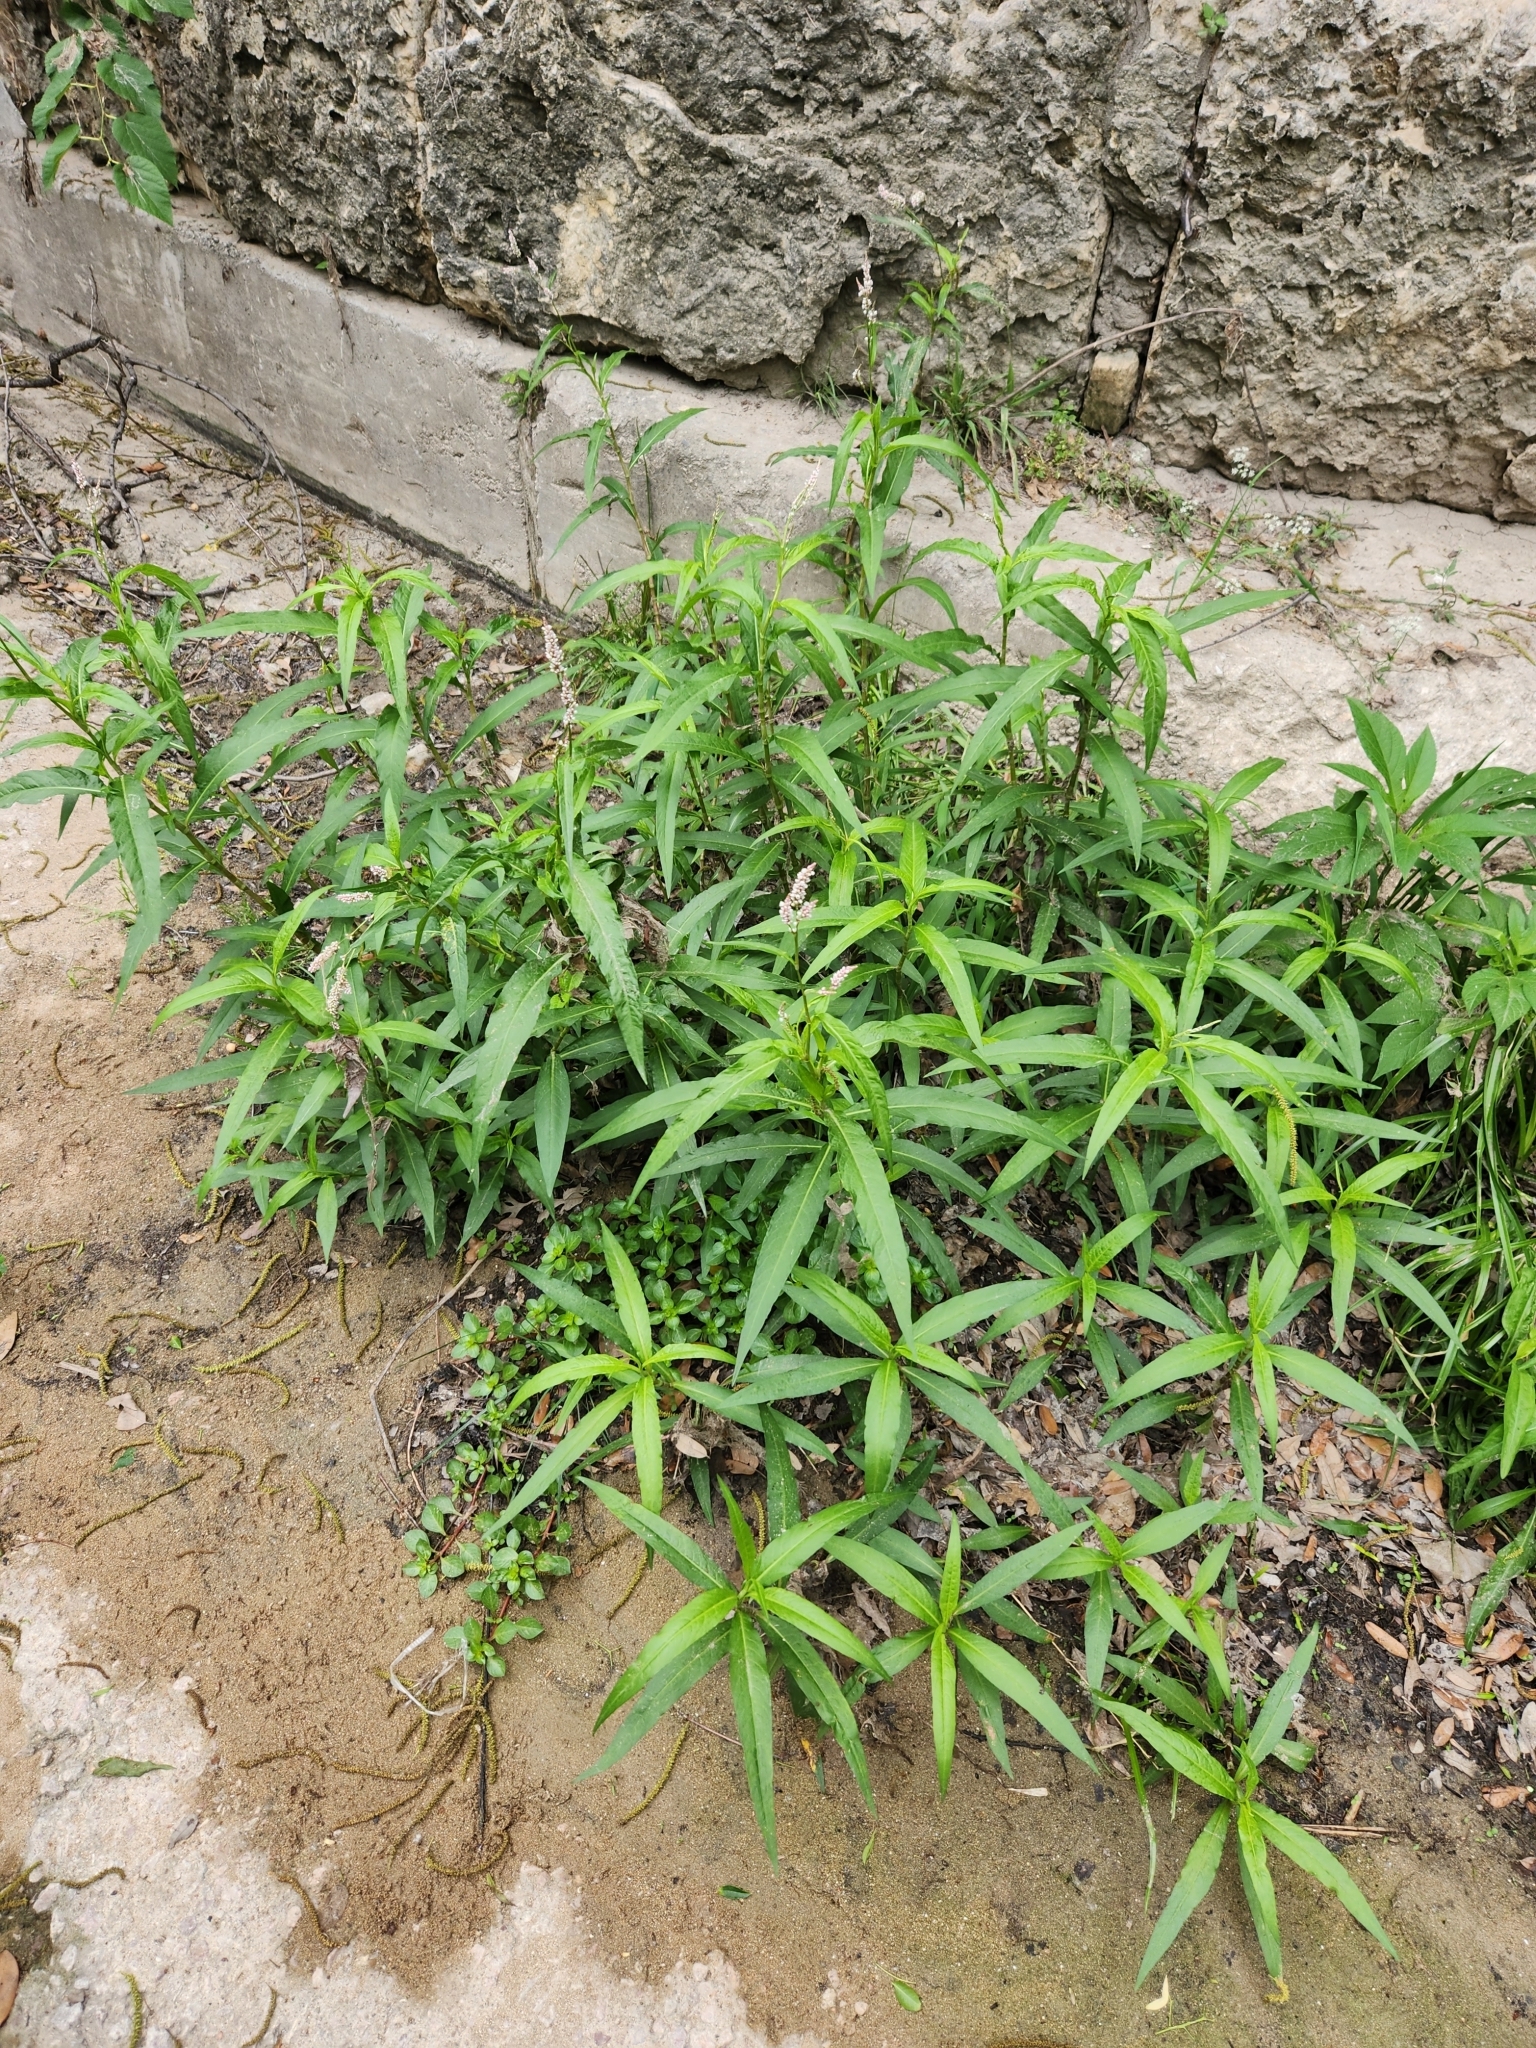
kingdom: Plantae
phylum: Tracheophyta
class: Magnoliopsida
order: Caryophyllales
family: Polygonaceae
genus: Persicaria
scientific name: Persicaria glabra
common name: Denseflower knotweed
